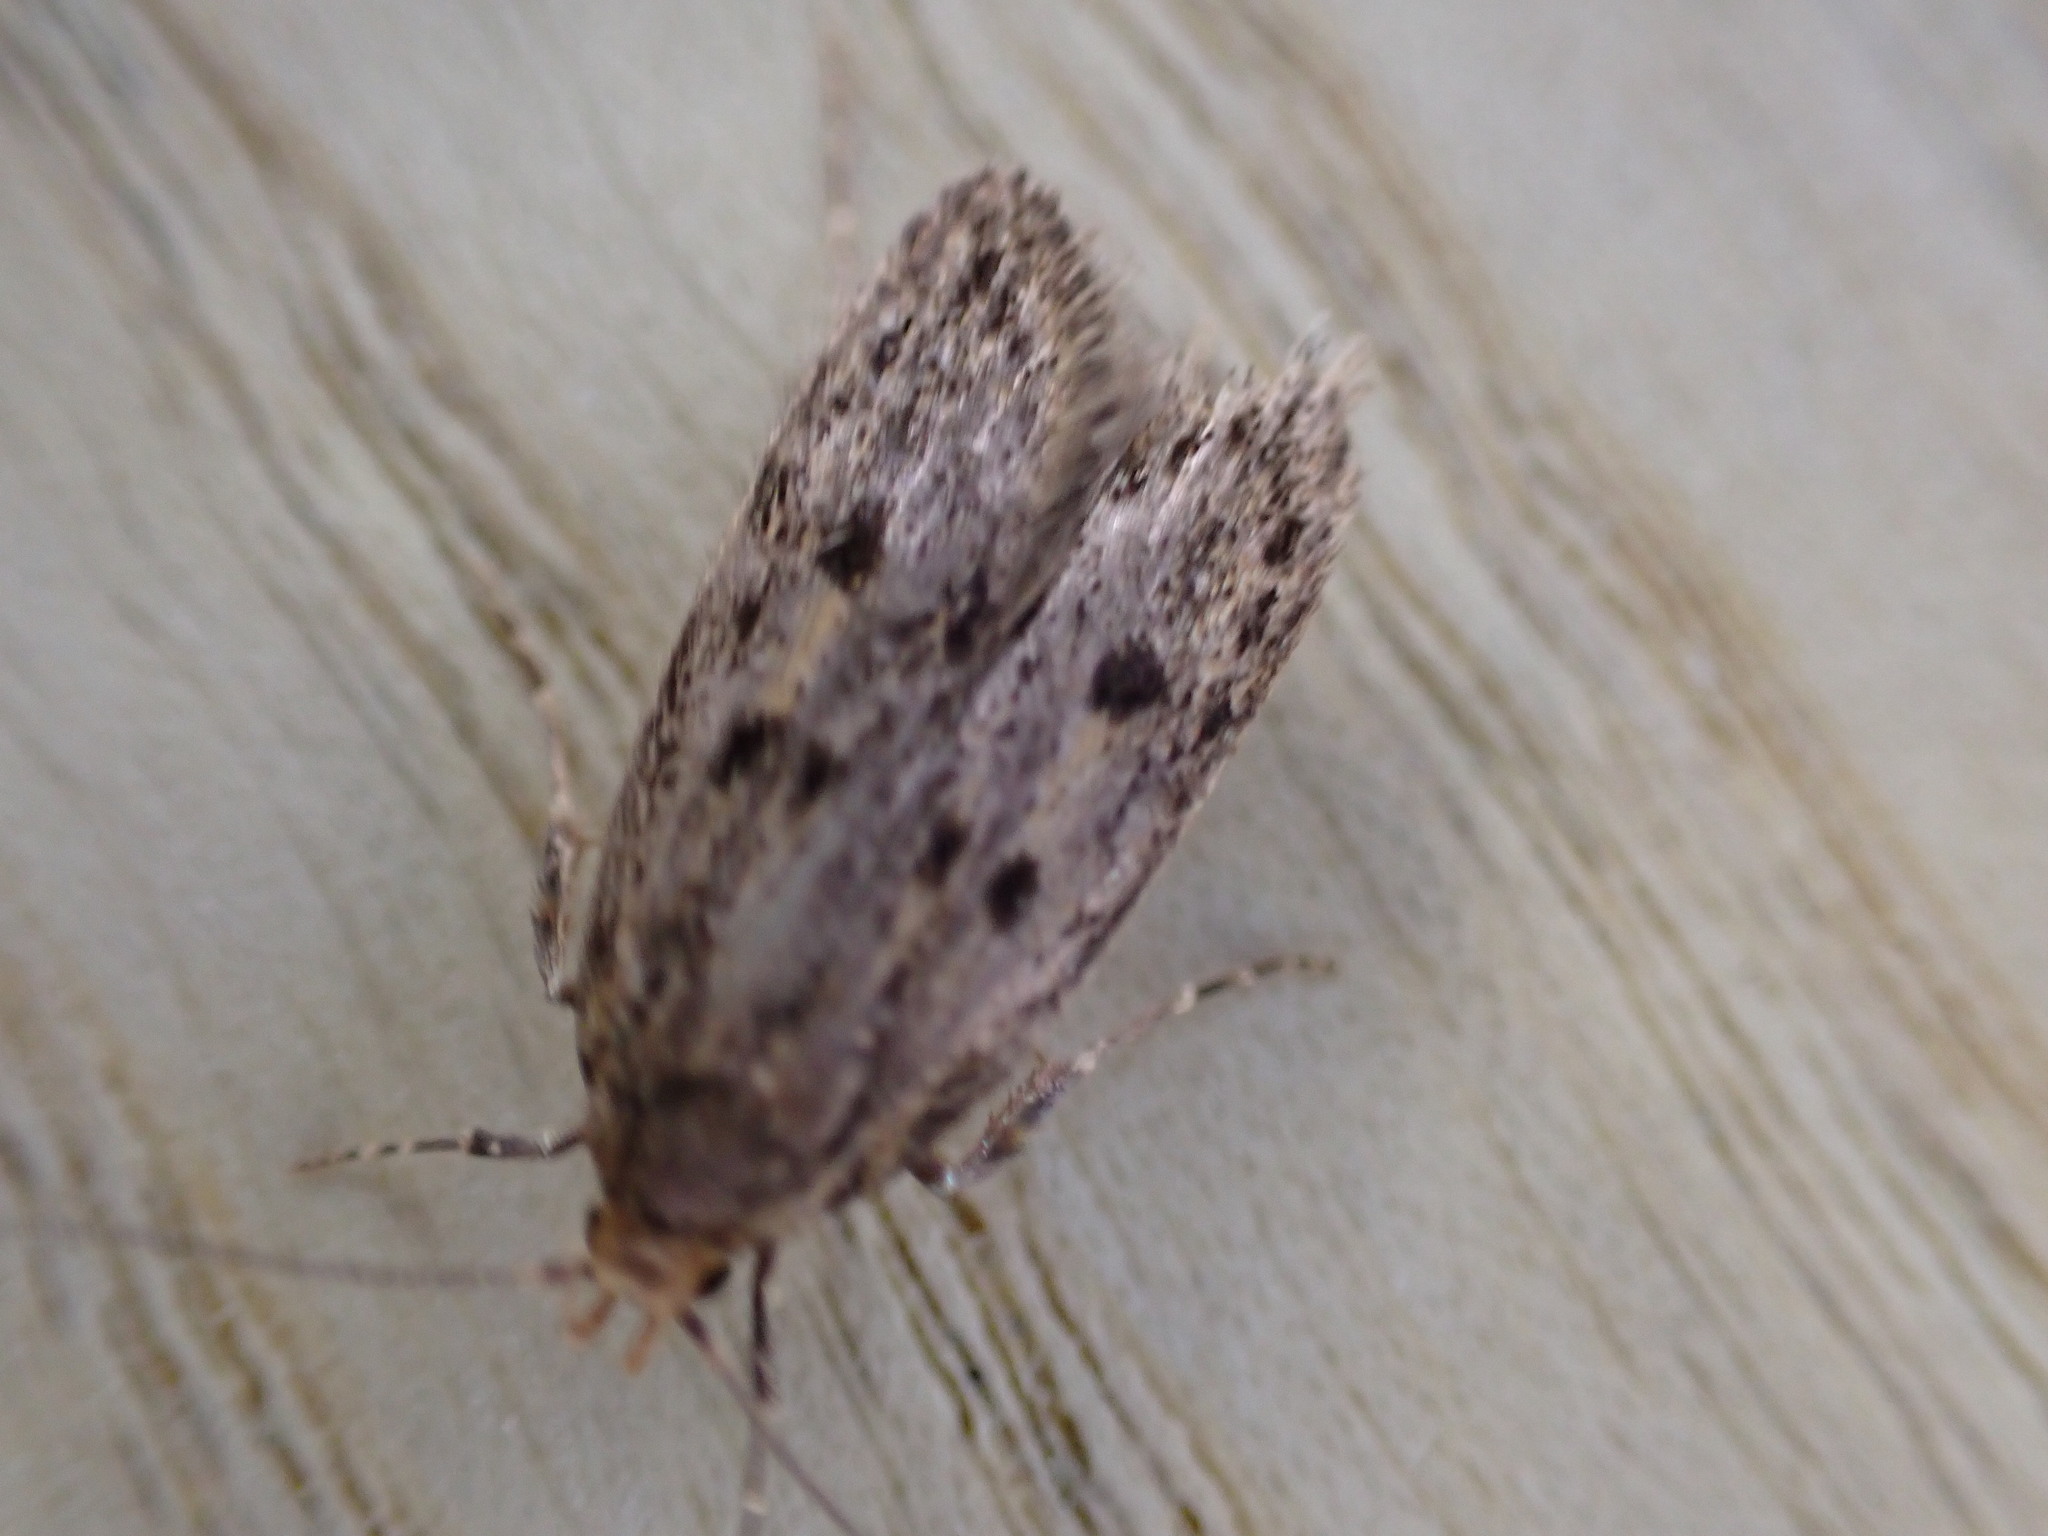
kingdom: Animalia
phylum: Arthropoda
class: Insecta
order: Lepidoptera
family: Oecophoridae
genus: Hofmannophila
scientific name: Hofmannophila pseudospretella
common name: Brown house moth
